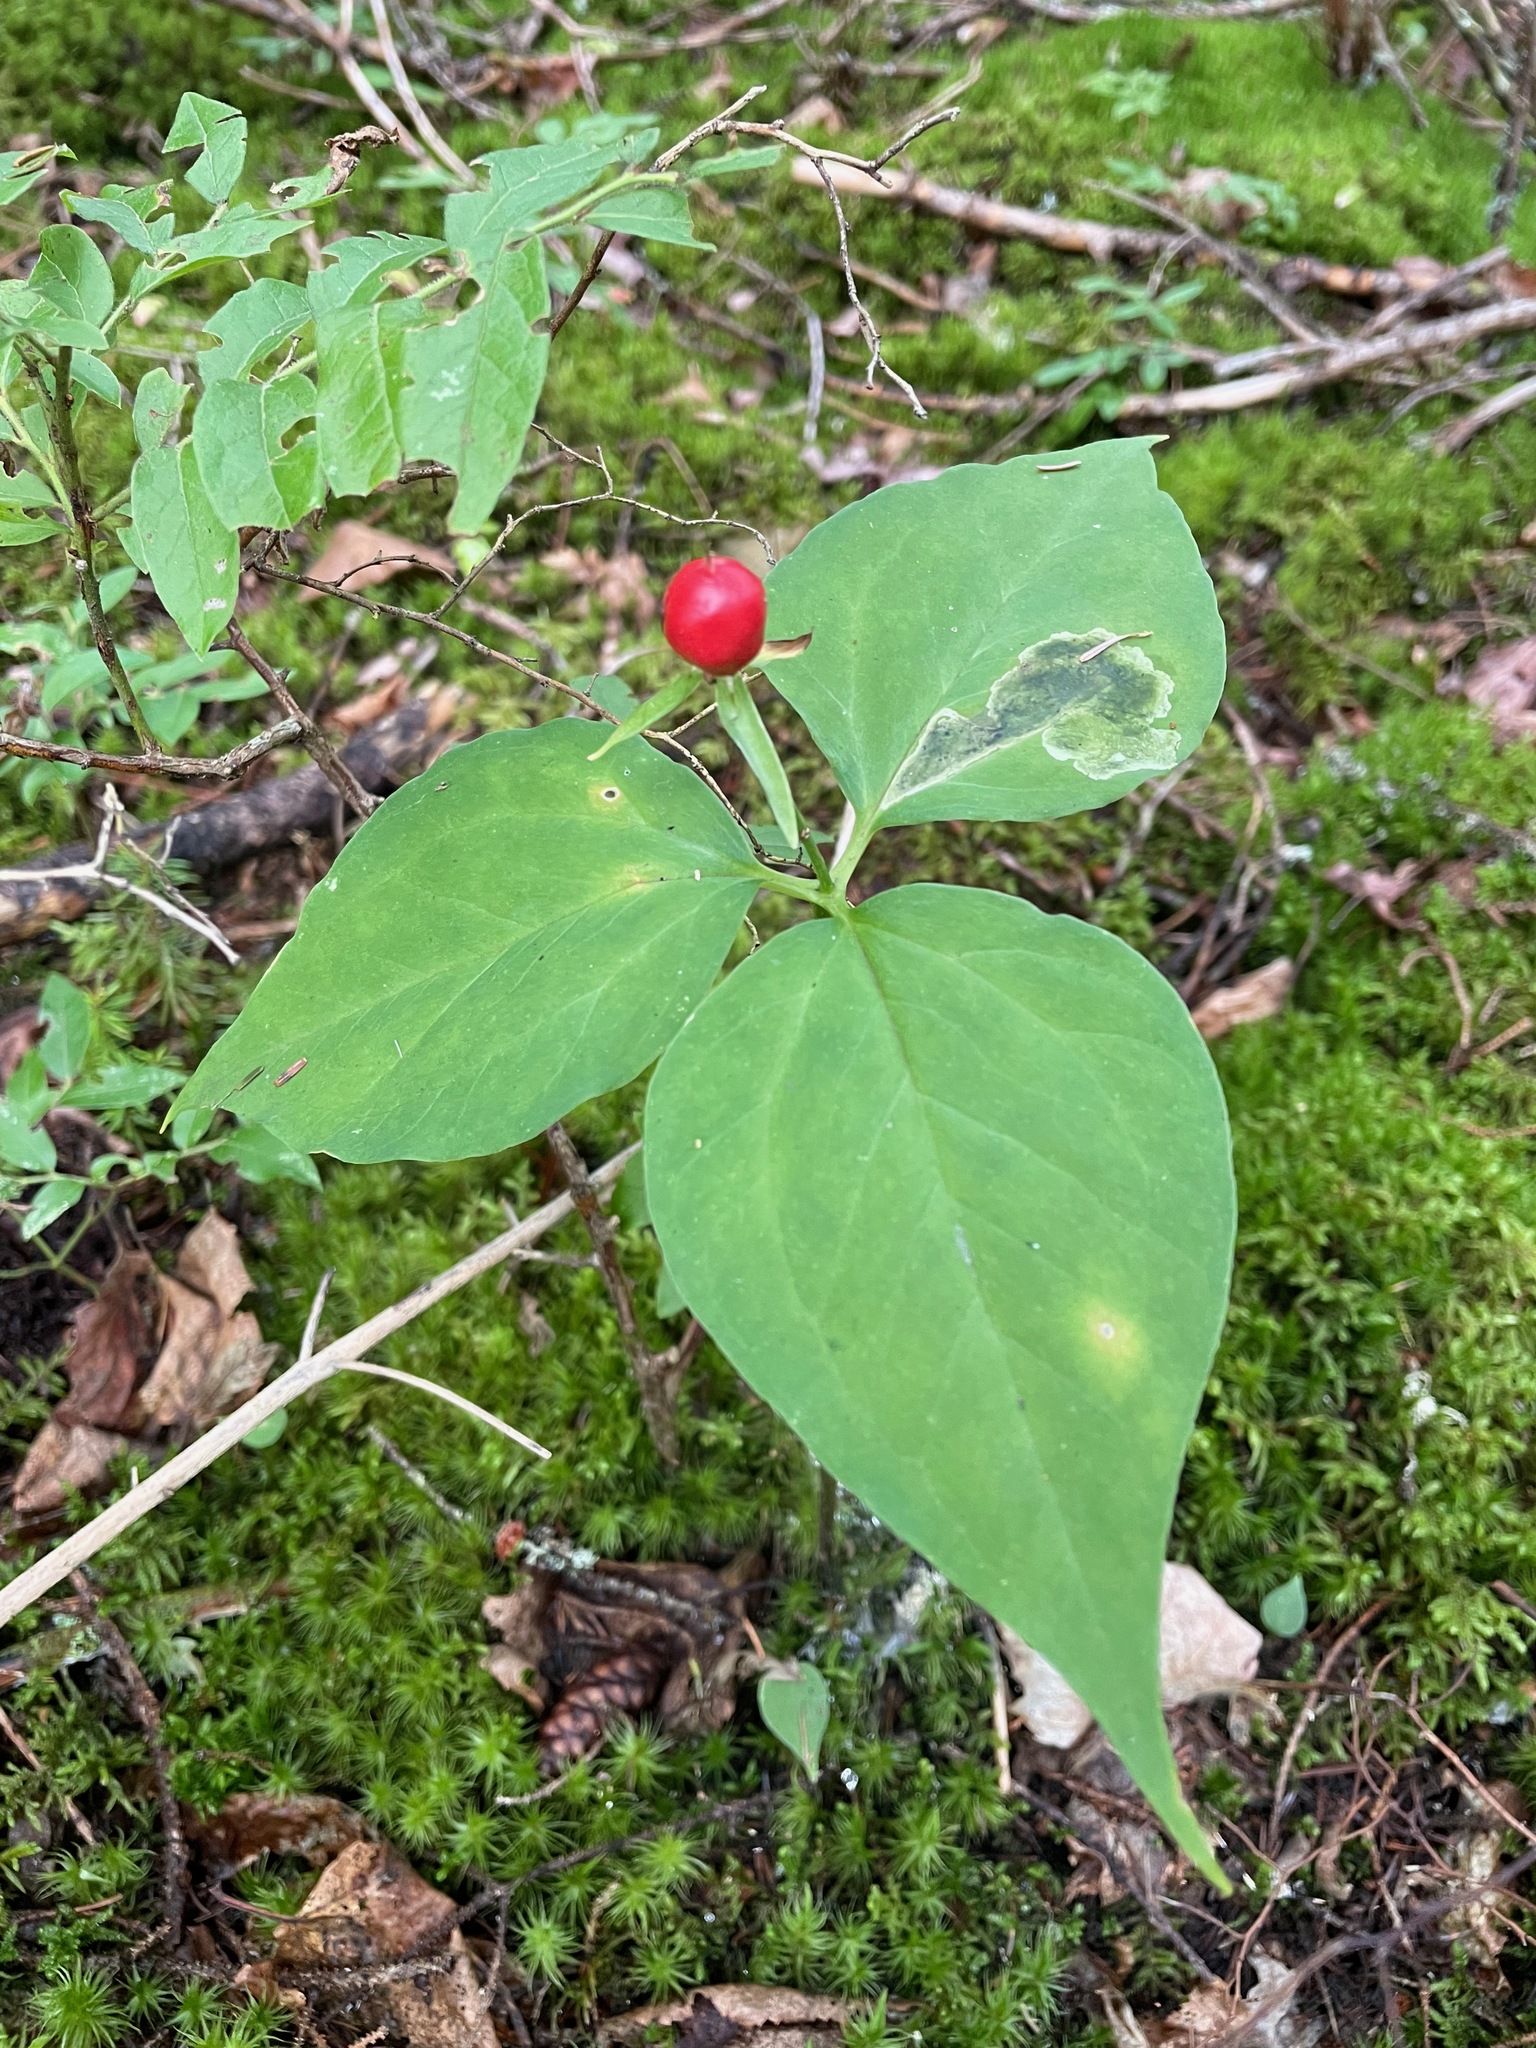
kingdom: Plantae
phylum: Tracheophyta
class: Liliopsida
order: Liliales
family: Melanthiaceae
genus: Trillium
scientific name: Trillium undulatum
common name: Paint trillium
